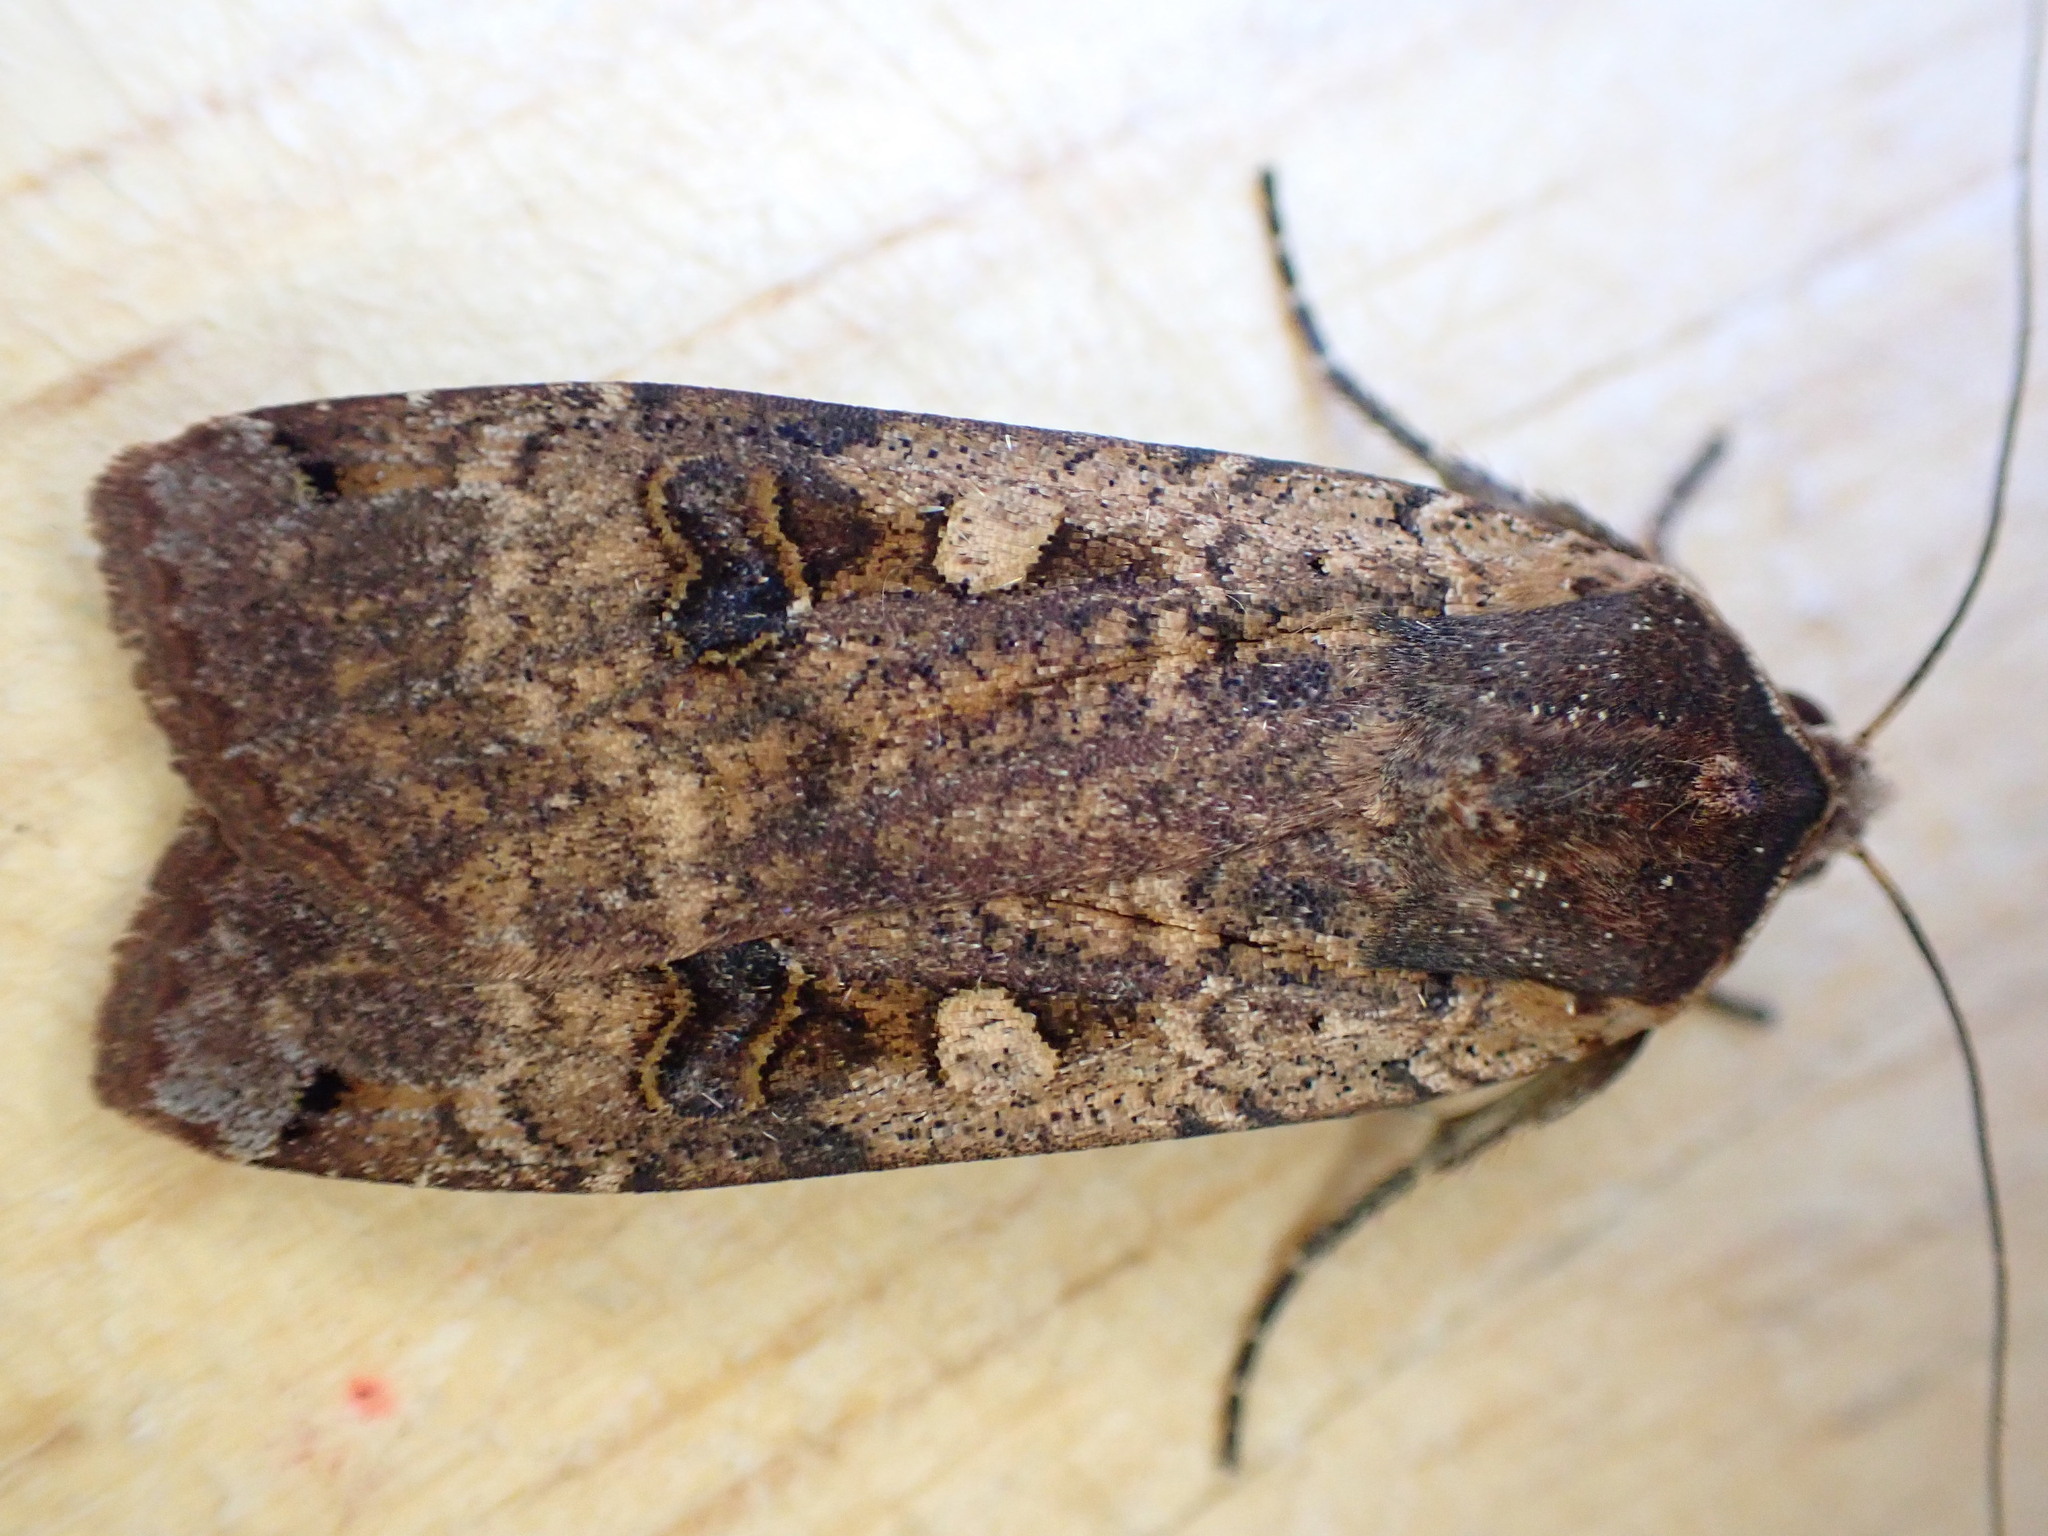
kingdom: Animalia
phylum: Arthropoda
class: Insecta
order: Lepidoptera
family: Noctuidae
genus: Noctua
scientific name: Noctua pronuba
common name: Large yellow underwing
